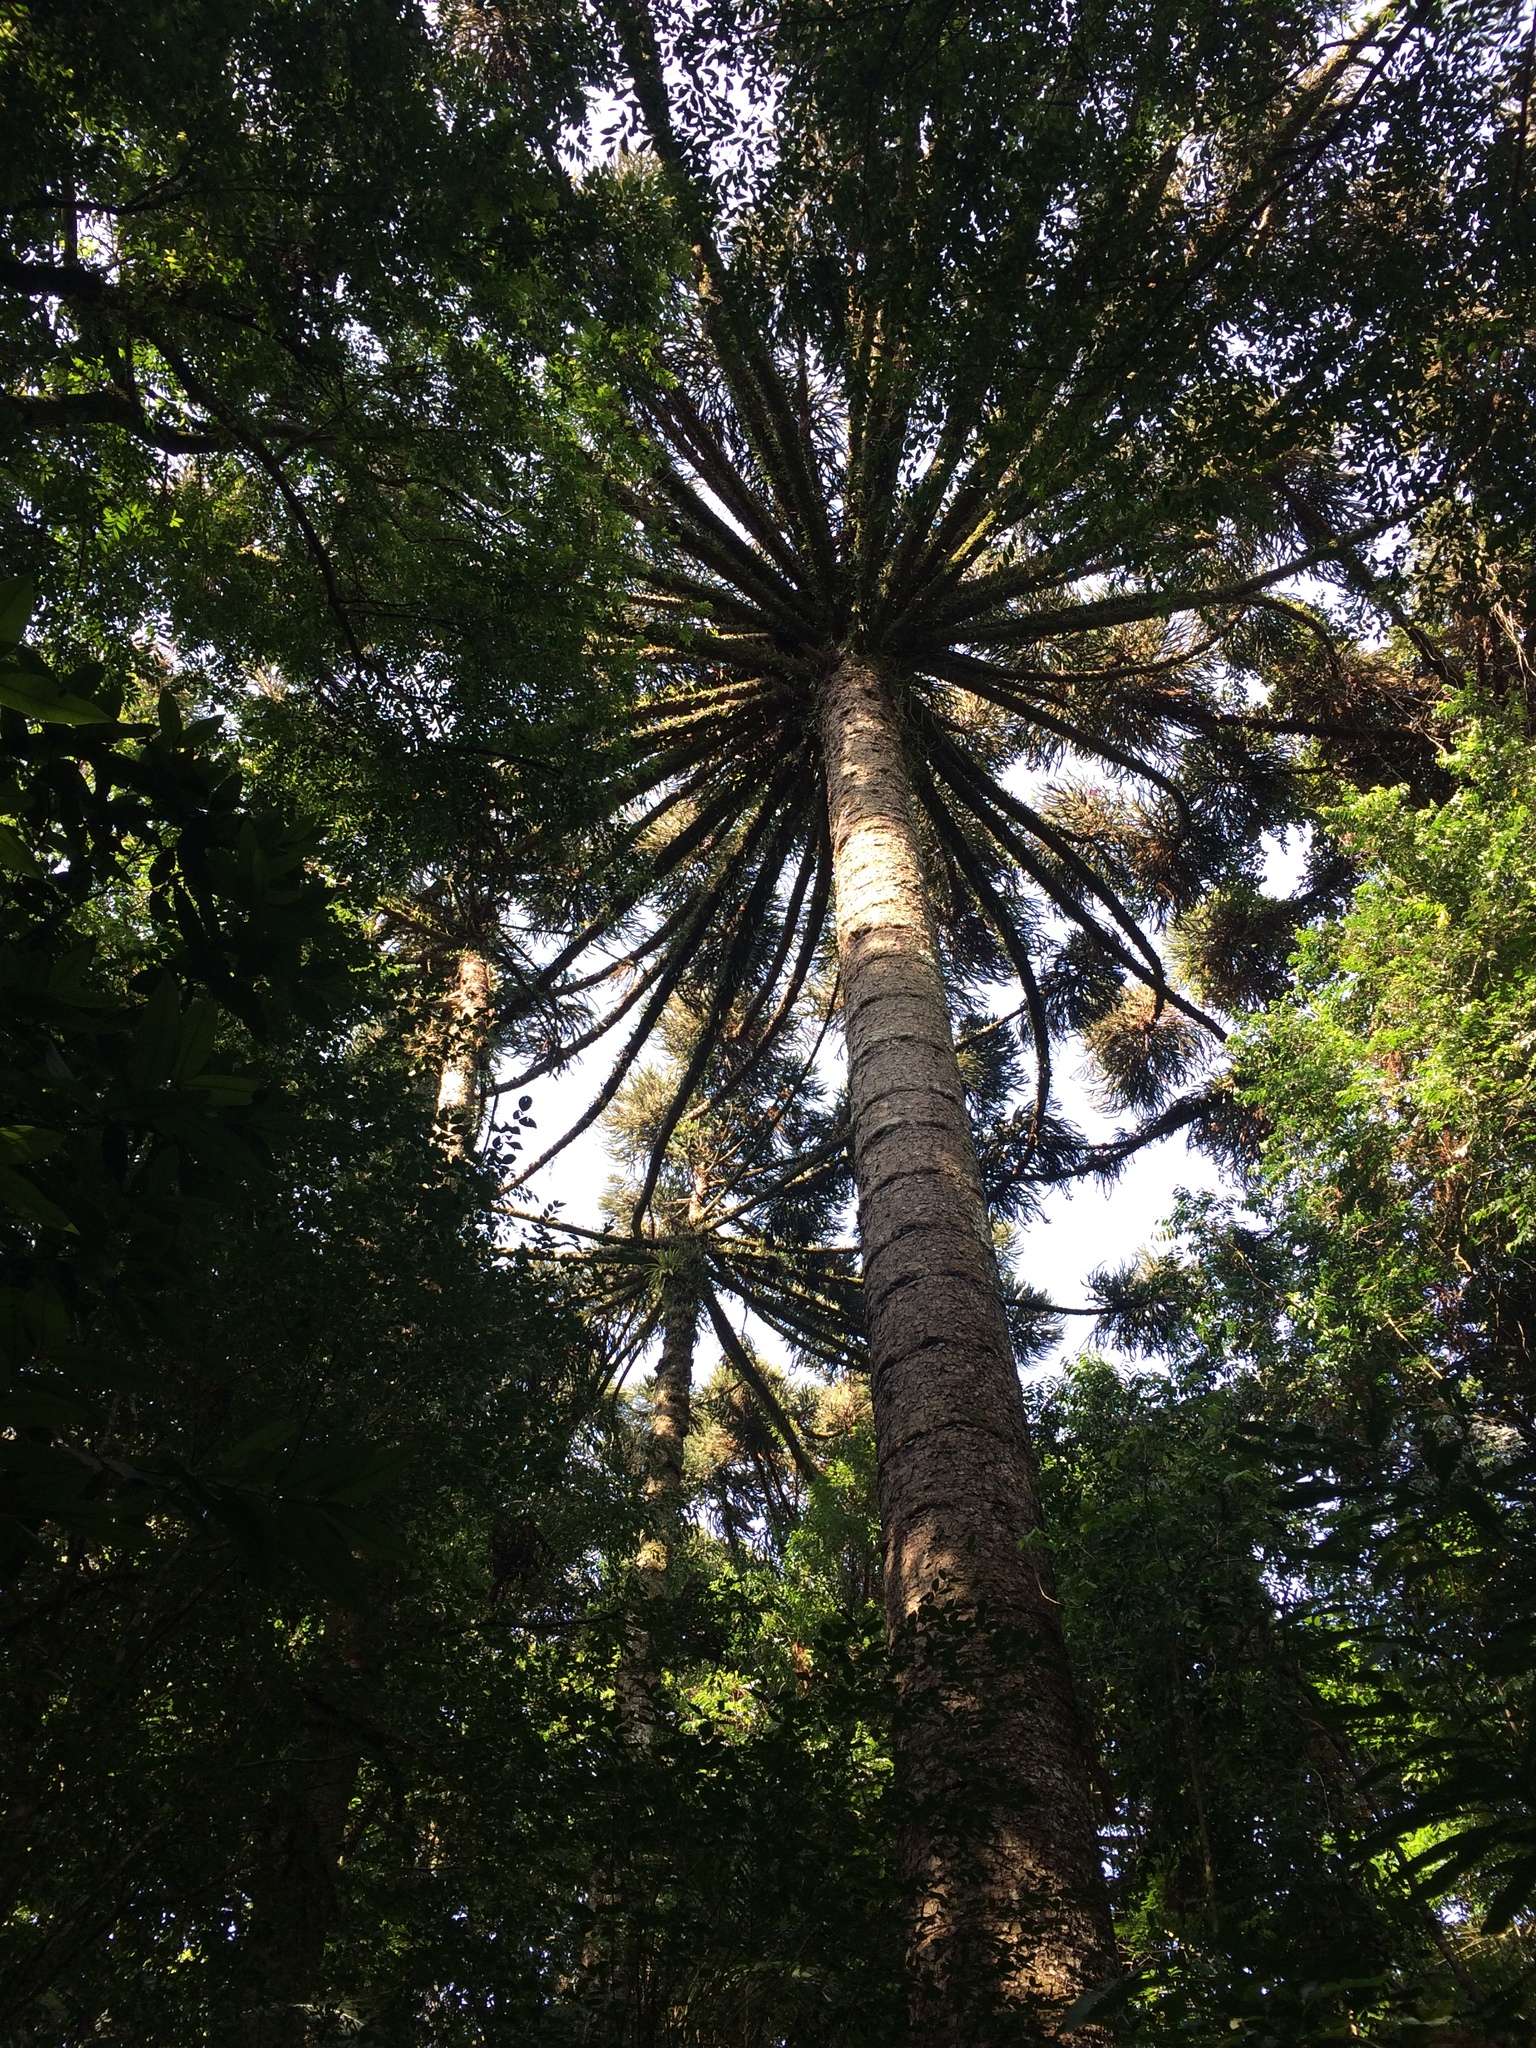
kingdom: Plantae
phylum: Tracheophyta
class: Pinopsida
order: Pinales
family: Araucariaceae
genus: Araucaria
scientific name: Araucaria angustifolia
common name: Candelabra tree
